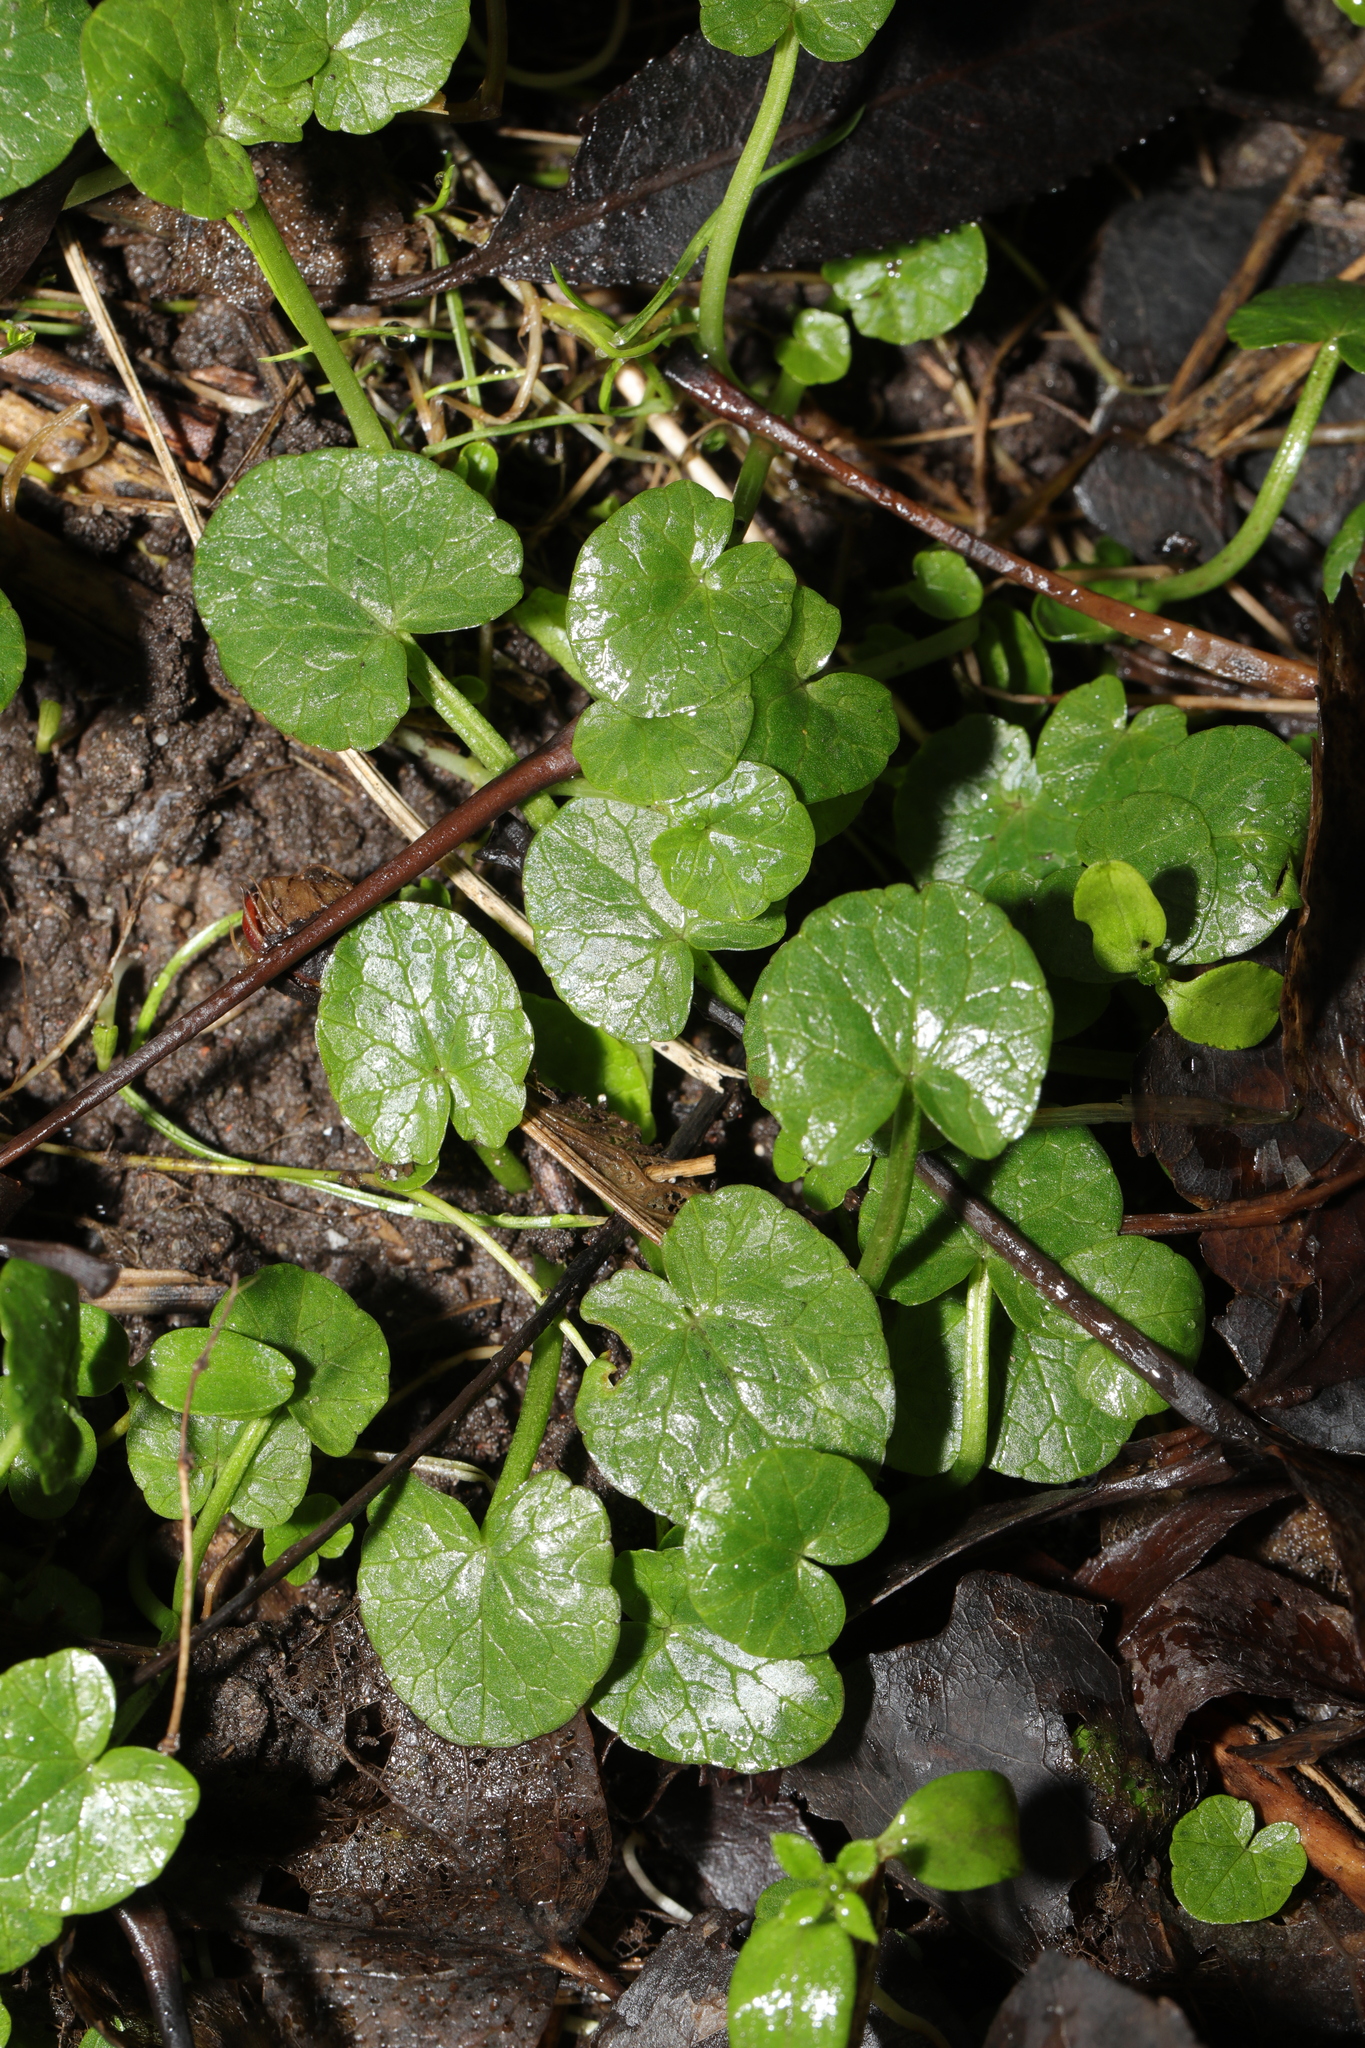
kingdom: Plantae
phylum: Tracheophyta
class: Magnoliopsida
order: Ranunculales
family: Ranunculaceae
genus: Ficaria
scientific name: Ficaria verna
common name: Lesser celandine
